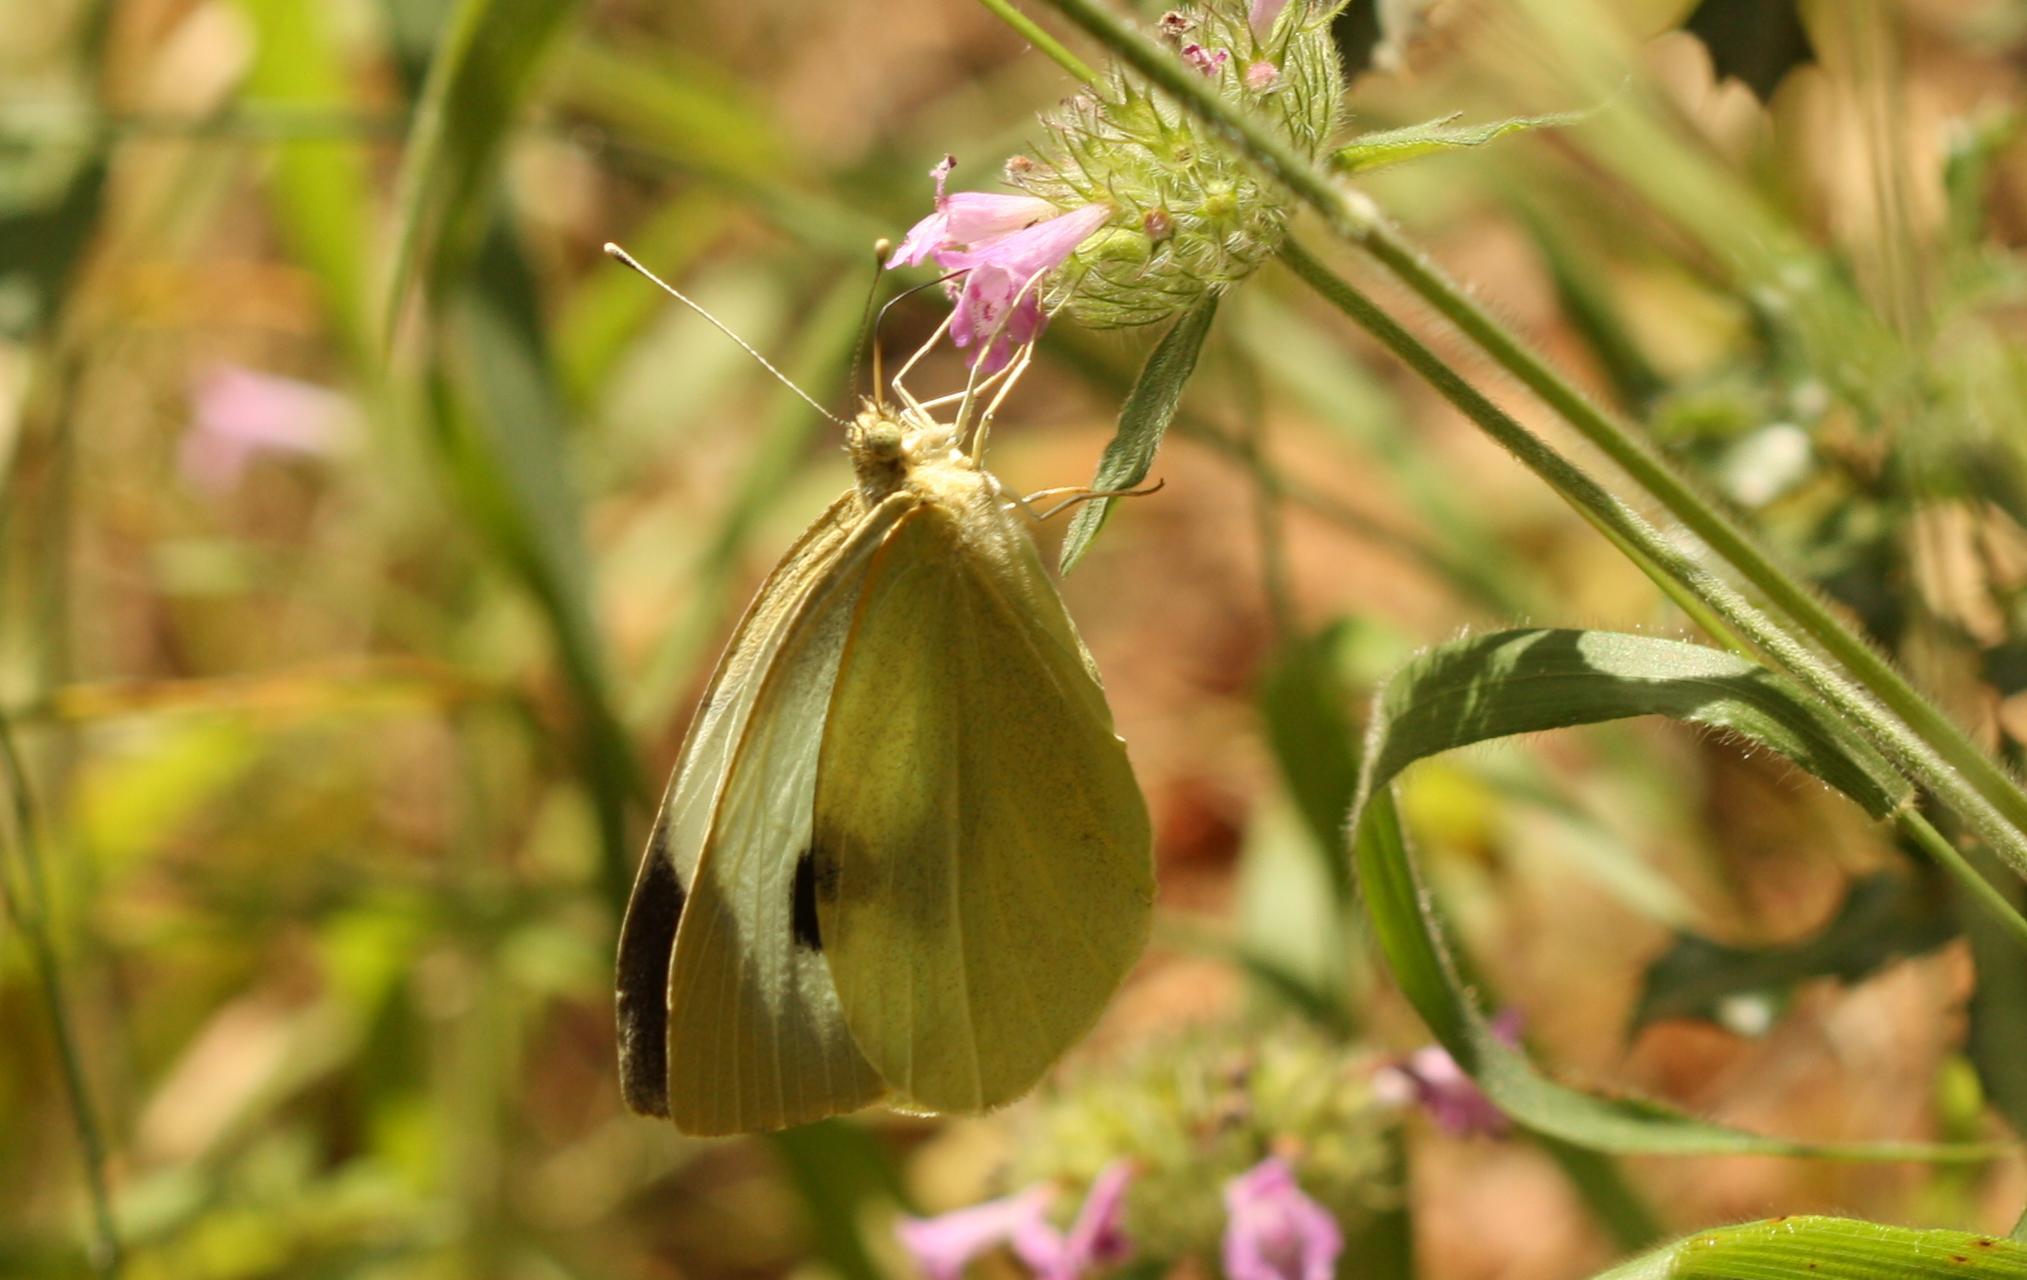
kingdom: Animalia
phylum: Arthropoda
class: Insecta
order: Lepidoptera
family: Pieridae
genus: Pieris
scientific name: Pieris brassicae
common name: Large white
